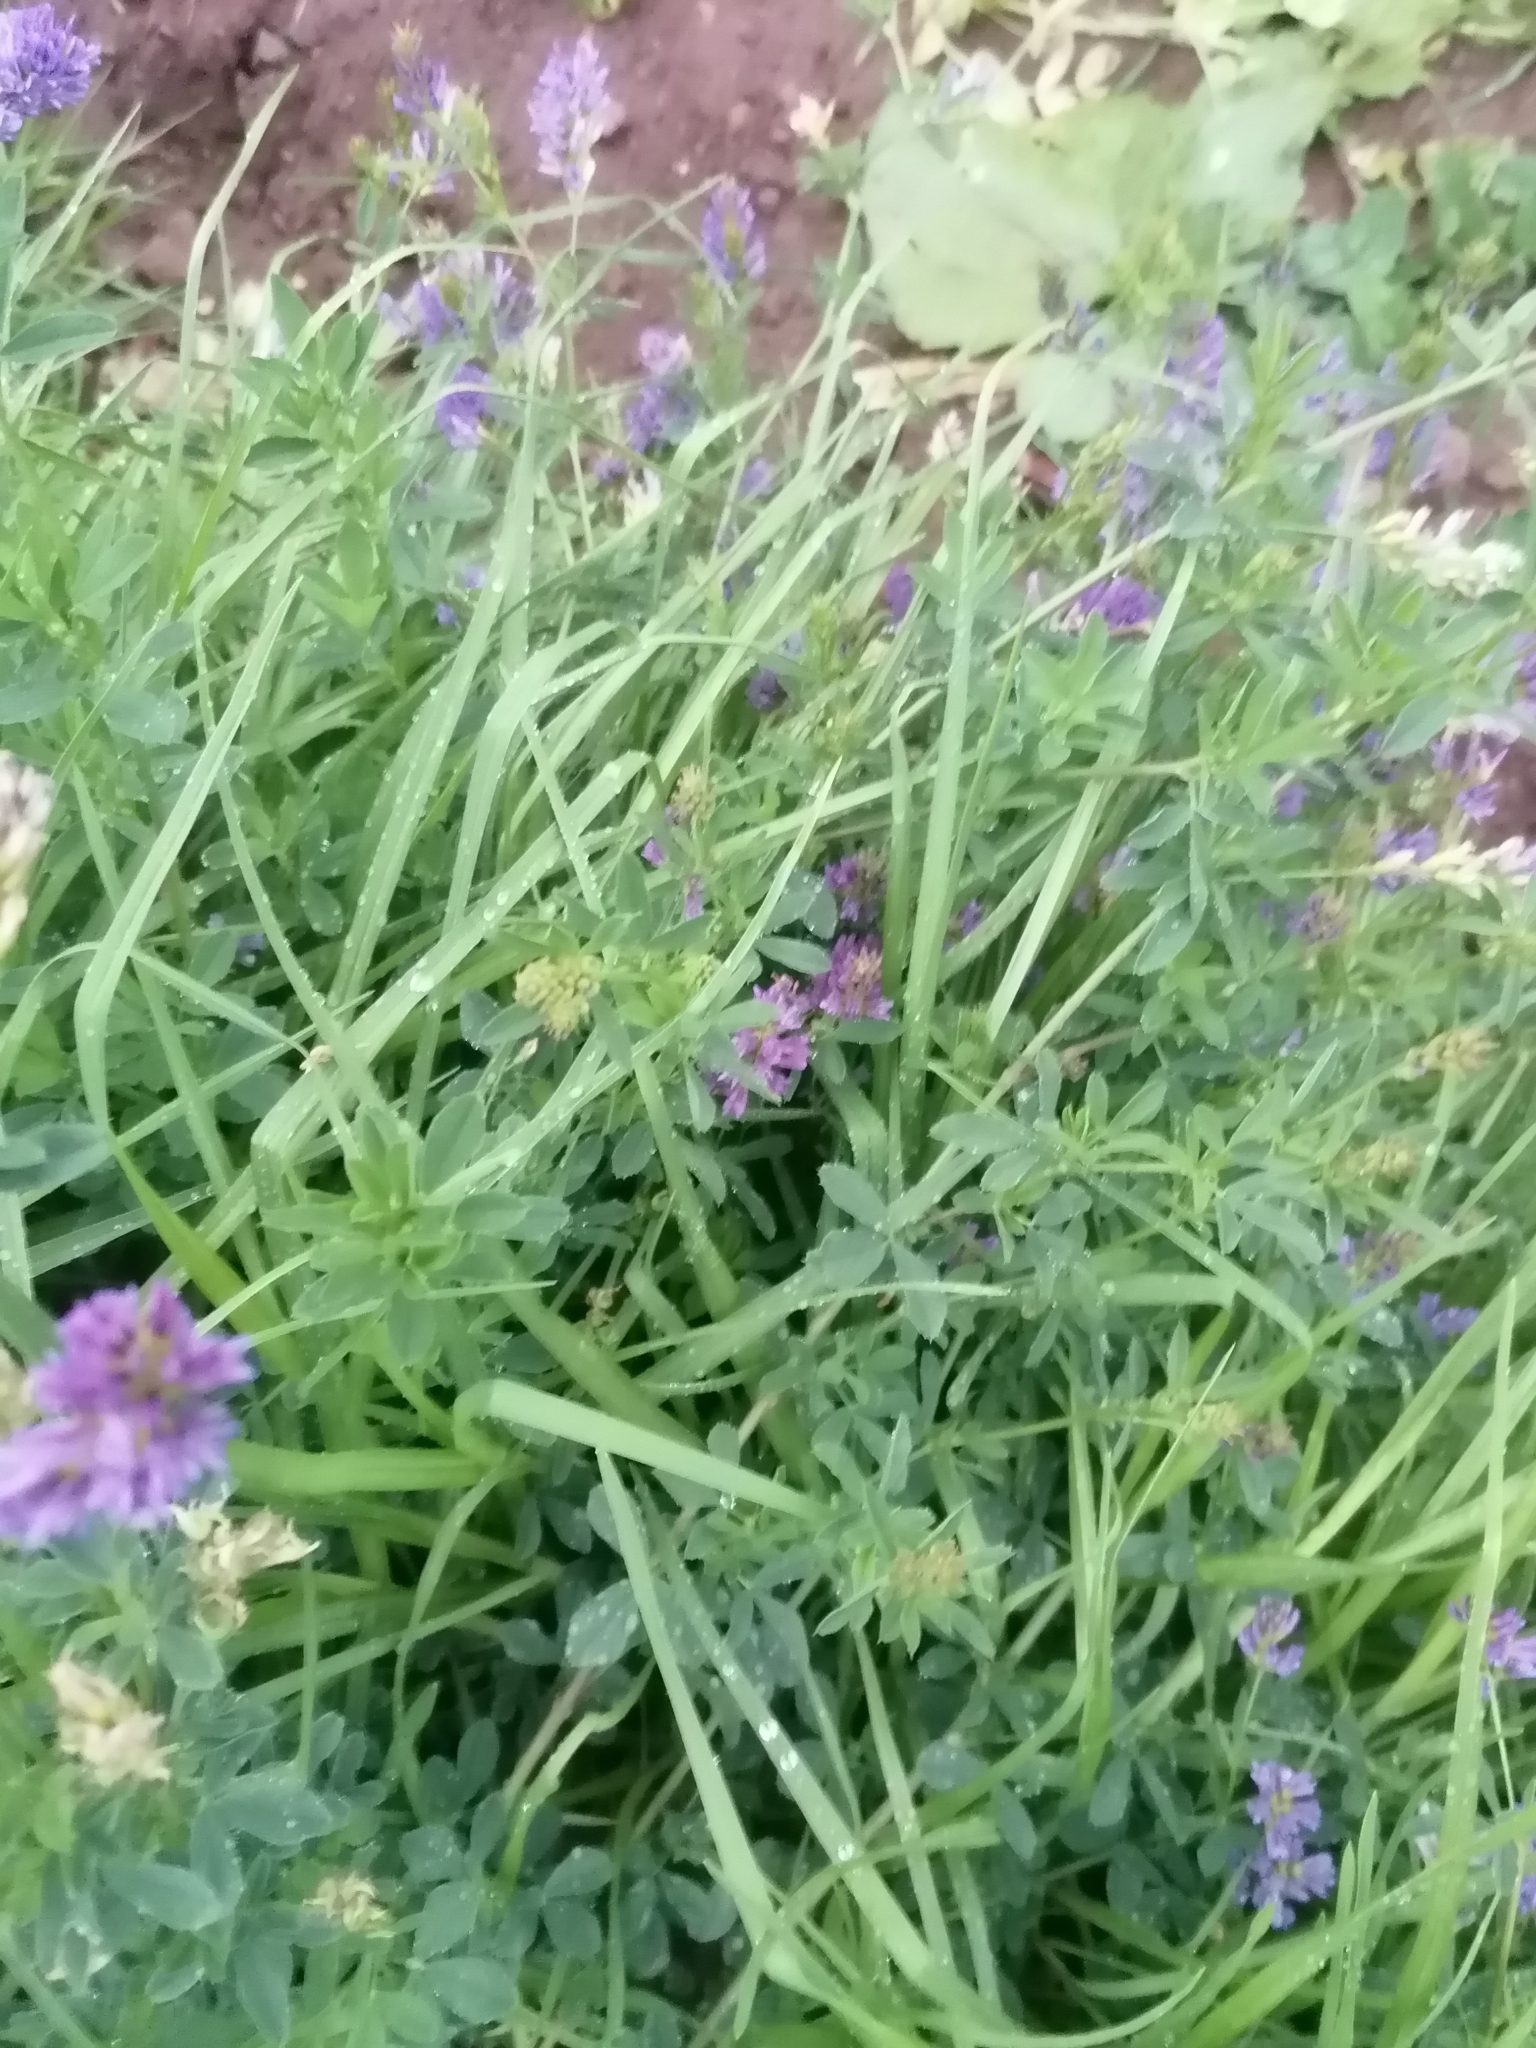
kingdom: Plantae
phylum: Tracheophyta
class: Magnoliopsida
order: Fabales
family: Fabaceae
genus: Medicago
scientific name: Medicago sativa
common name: Alfalfa
